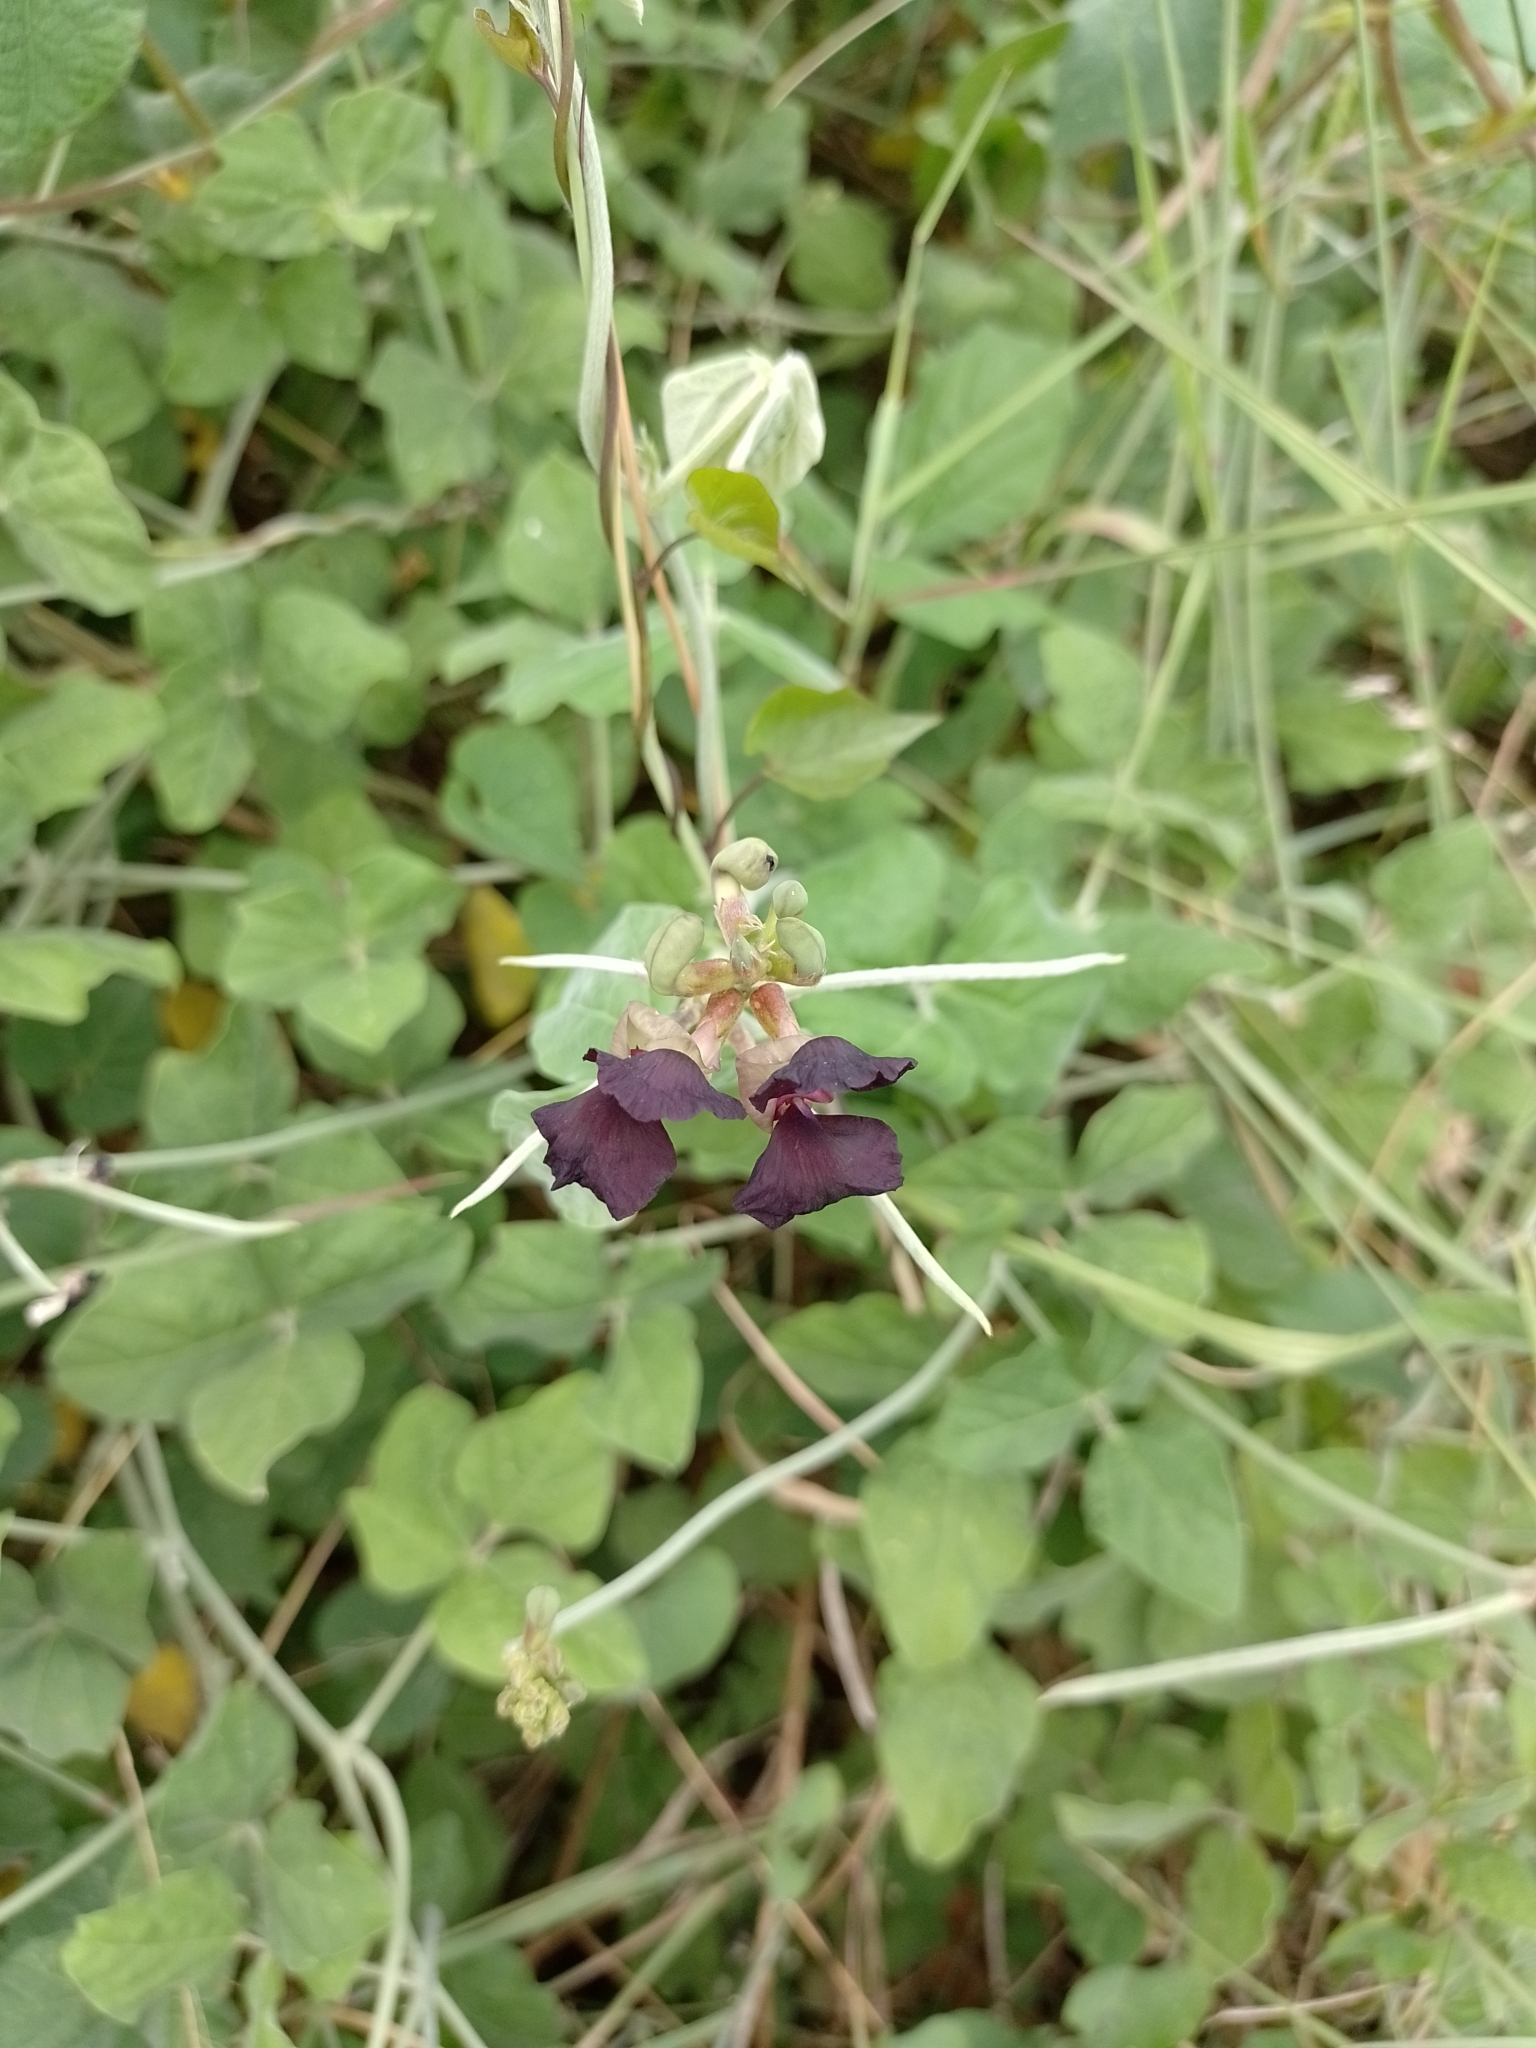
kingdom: Plantae
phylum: Tracheophyta
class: Magnoliopsida
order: Fabales
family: Fabaceae
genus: Macroptilium
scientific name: Macroptilium atropurpureum
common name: Purple bushbean
